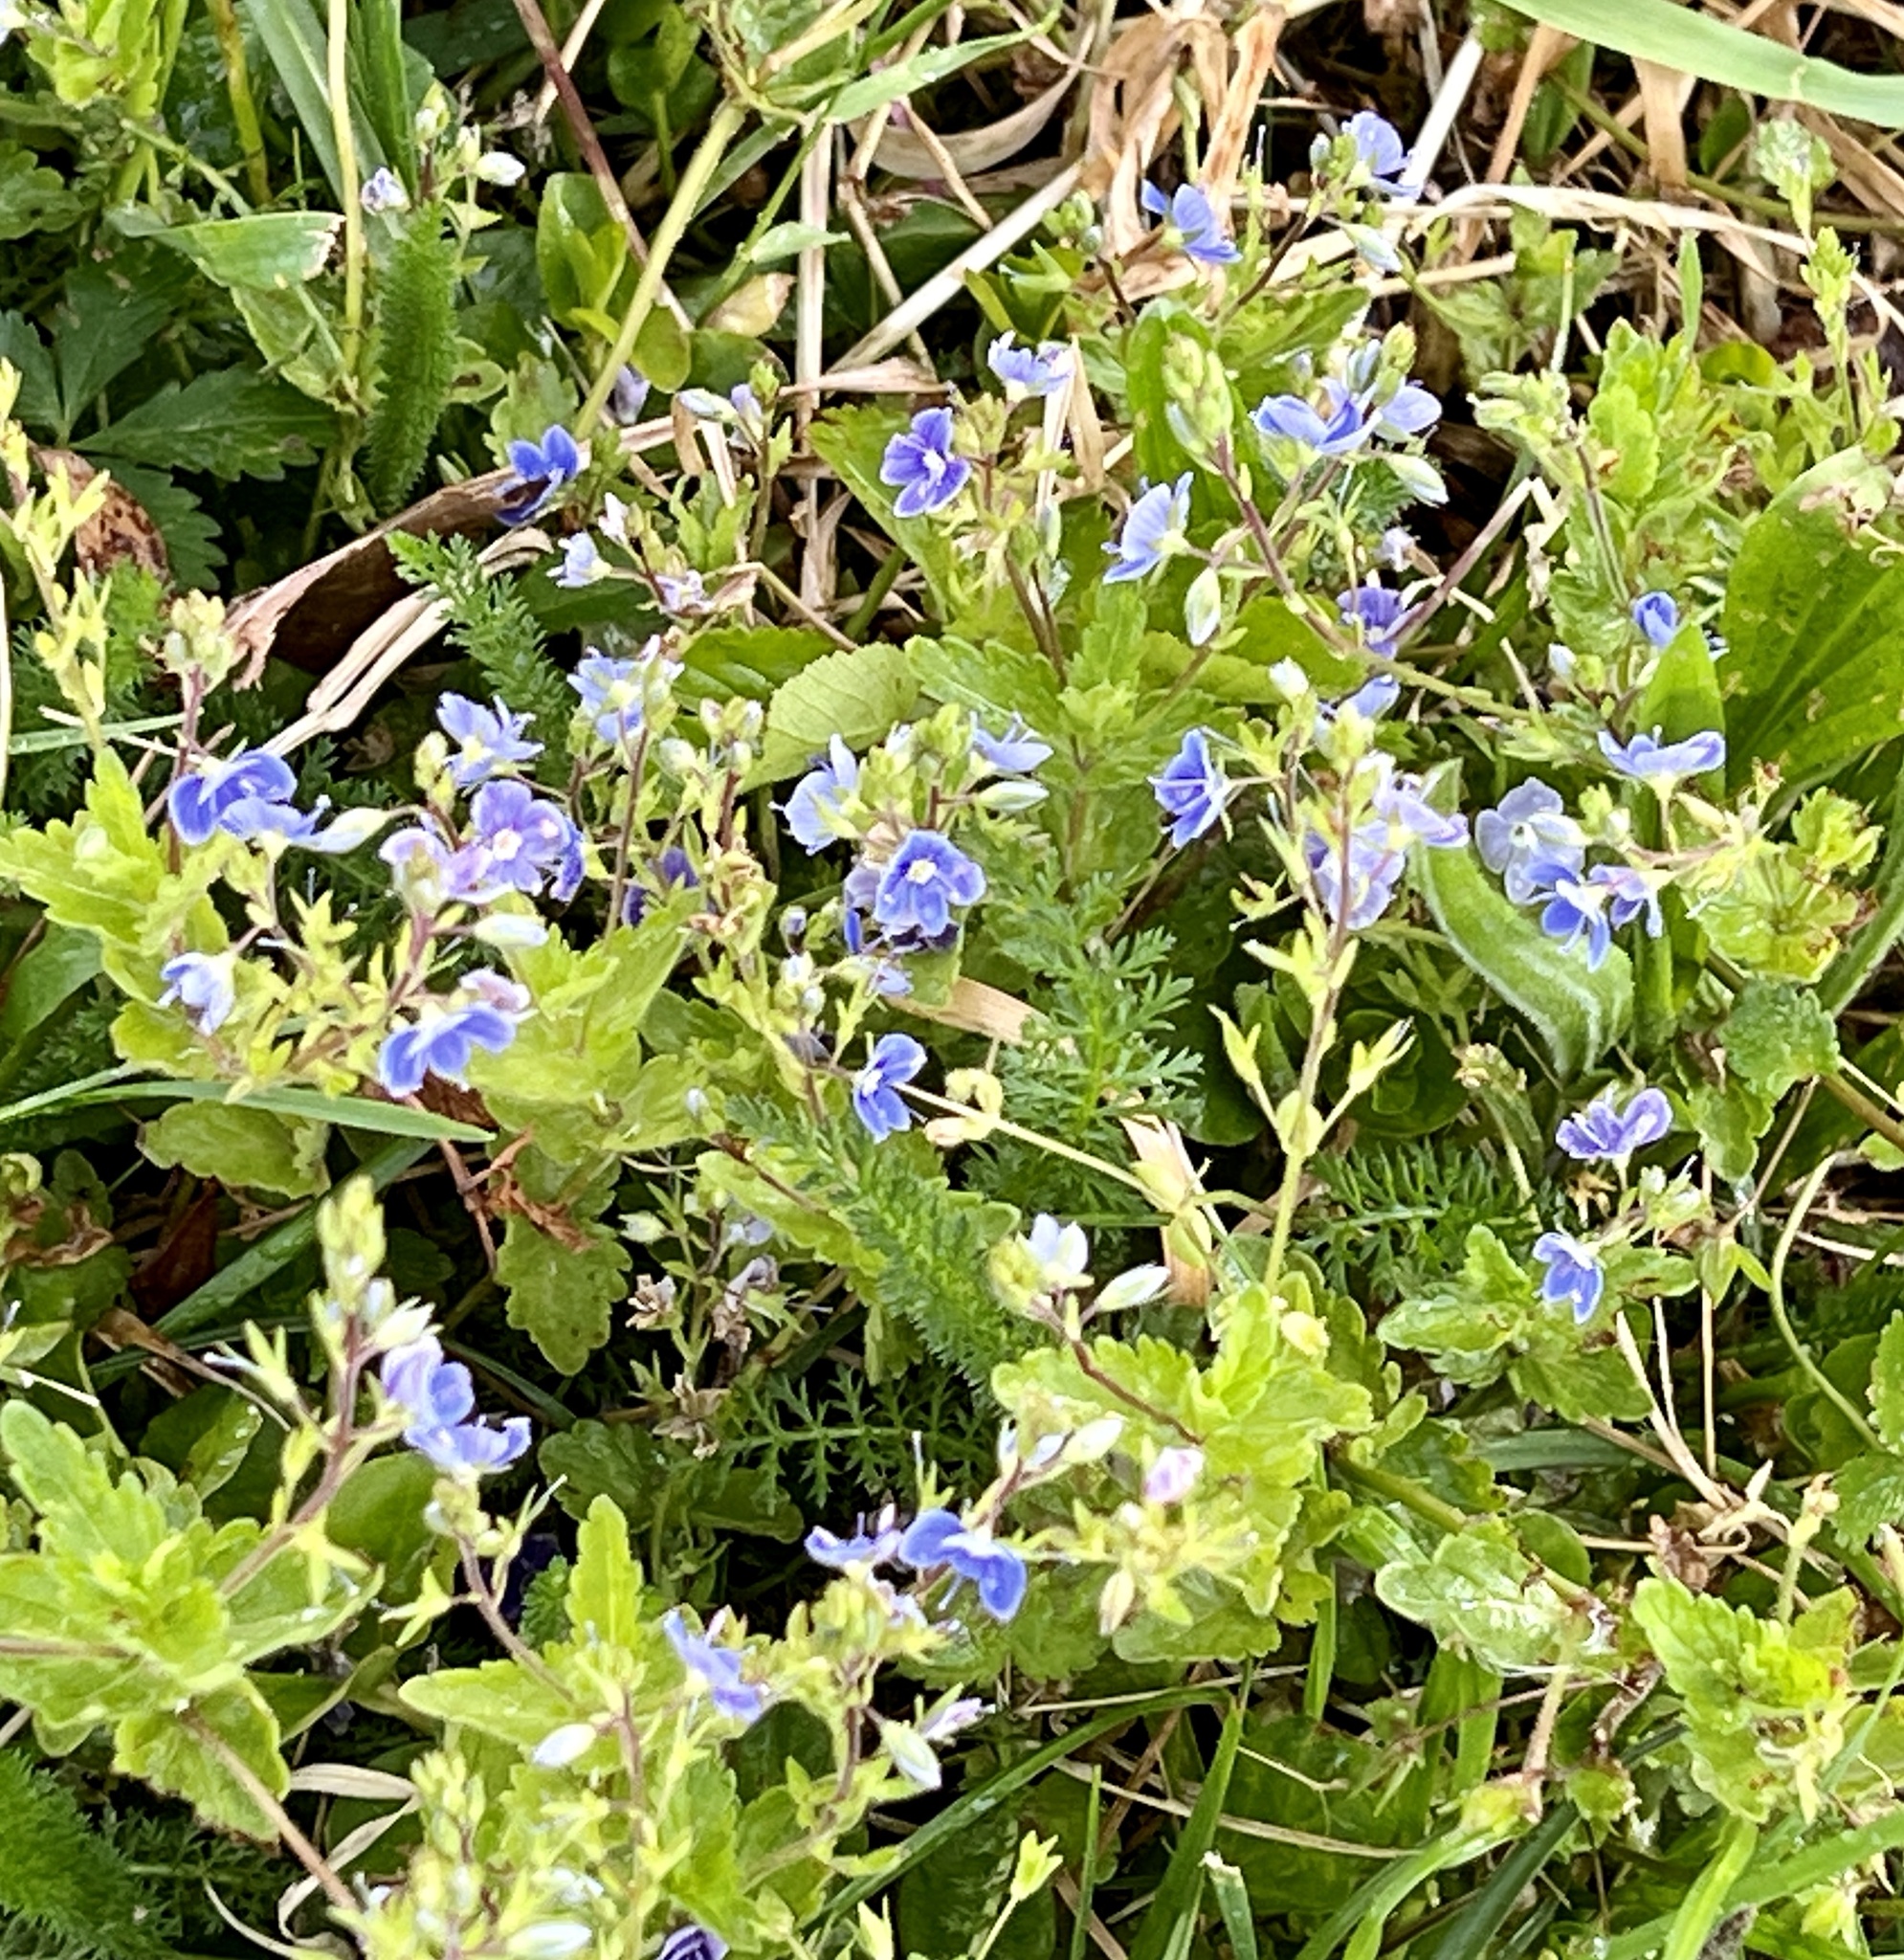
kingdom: Plantae
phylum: Tracheophyta
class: Magnoliopsida
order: Lamiales
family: Plantaginaceae
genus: Veronica
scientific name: Veronica chamaedrys
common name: Germander speedwell
